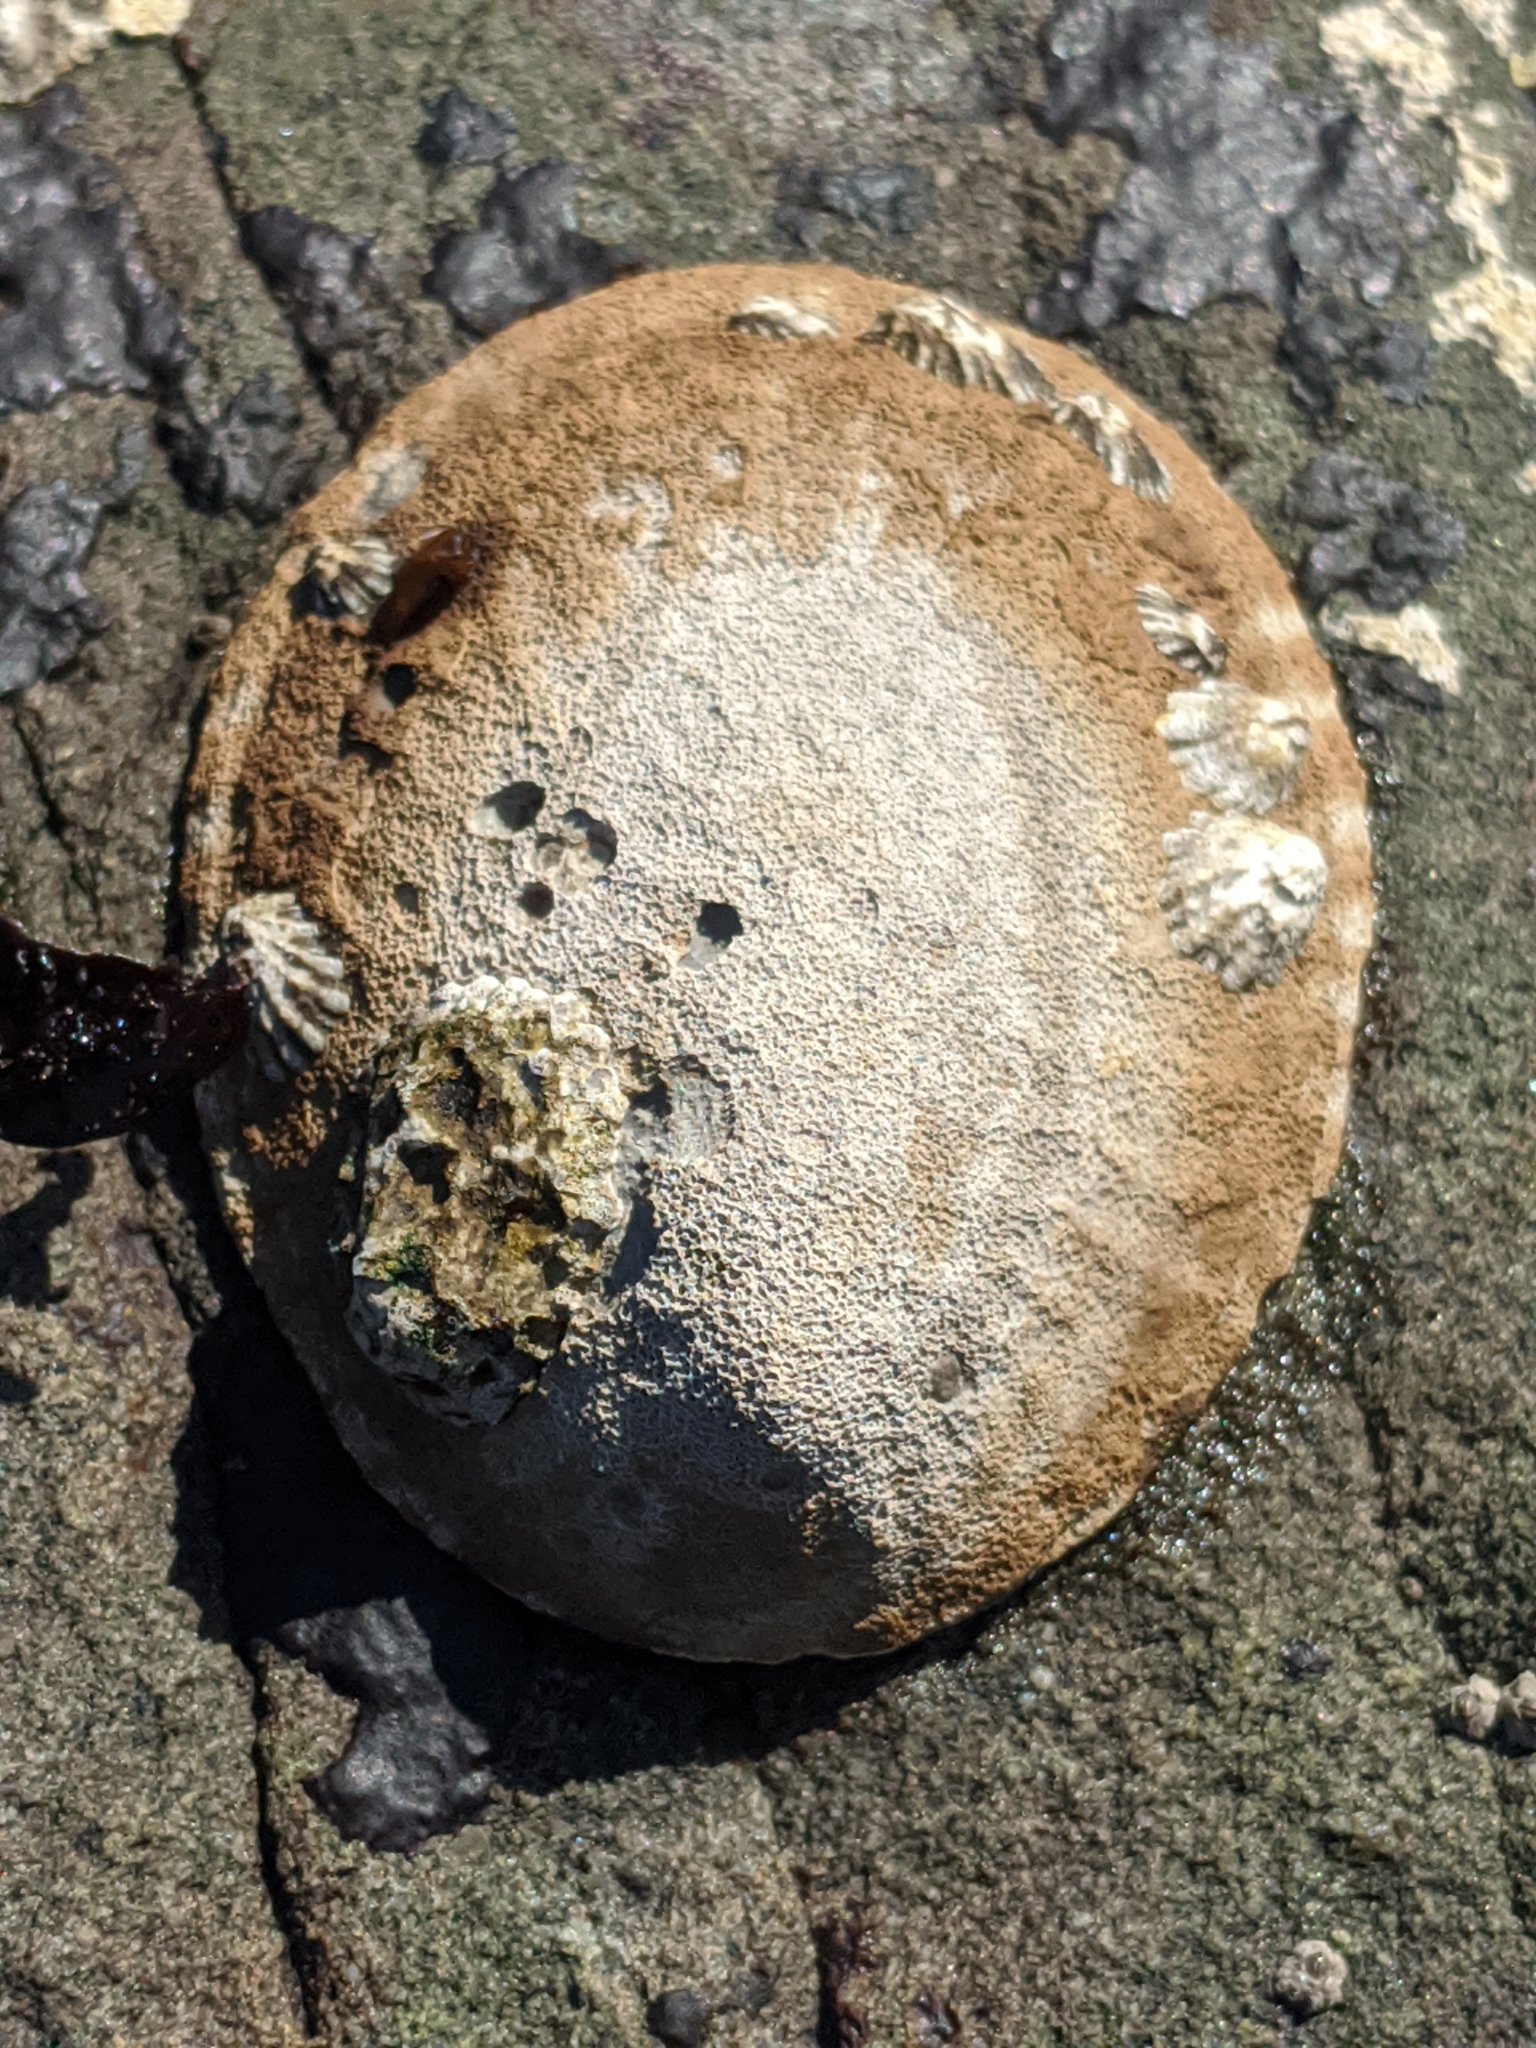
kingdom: Animalia
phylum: Mollusca
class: Gastropoda
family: Lottiidae
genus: Lottia
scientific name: Lottia gigantea
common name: Owl limpet
